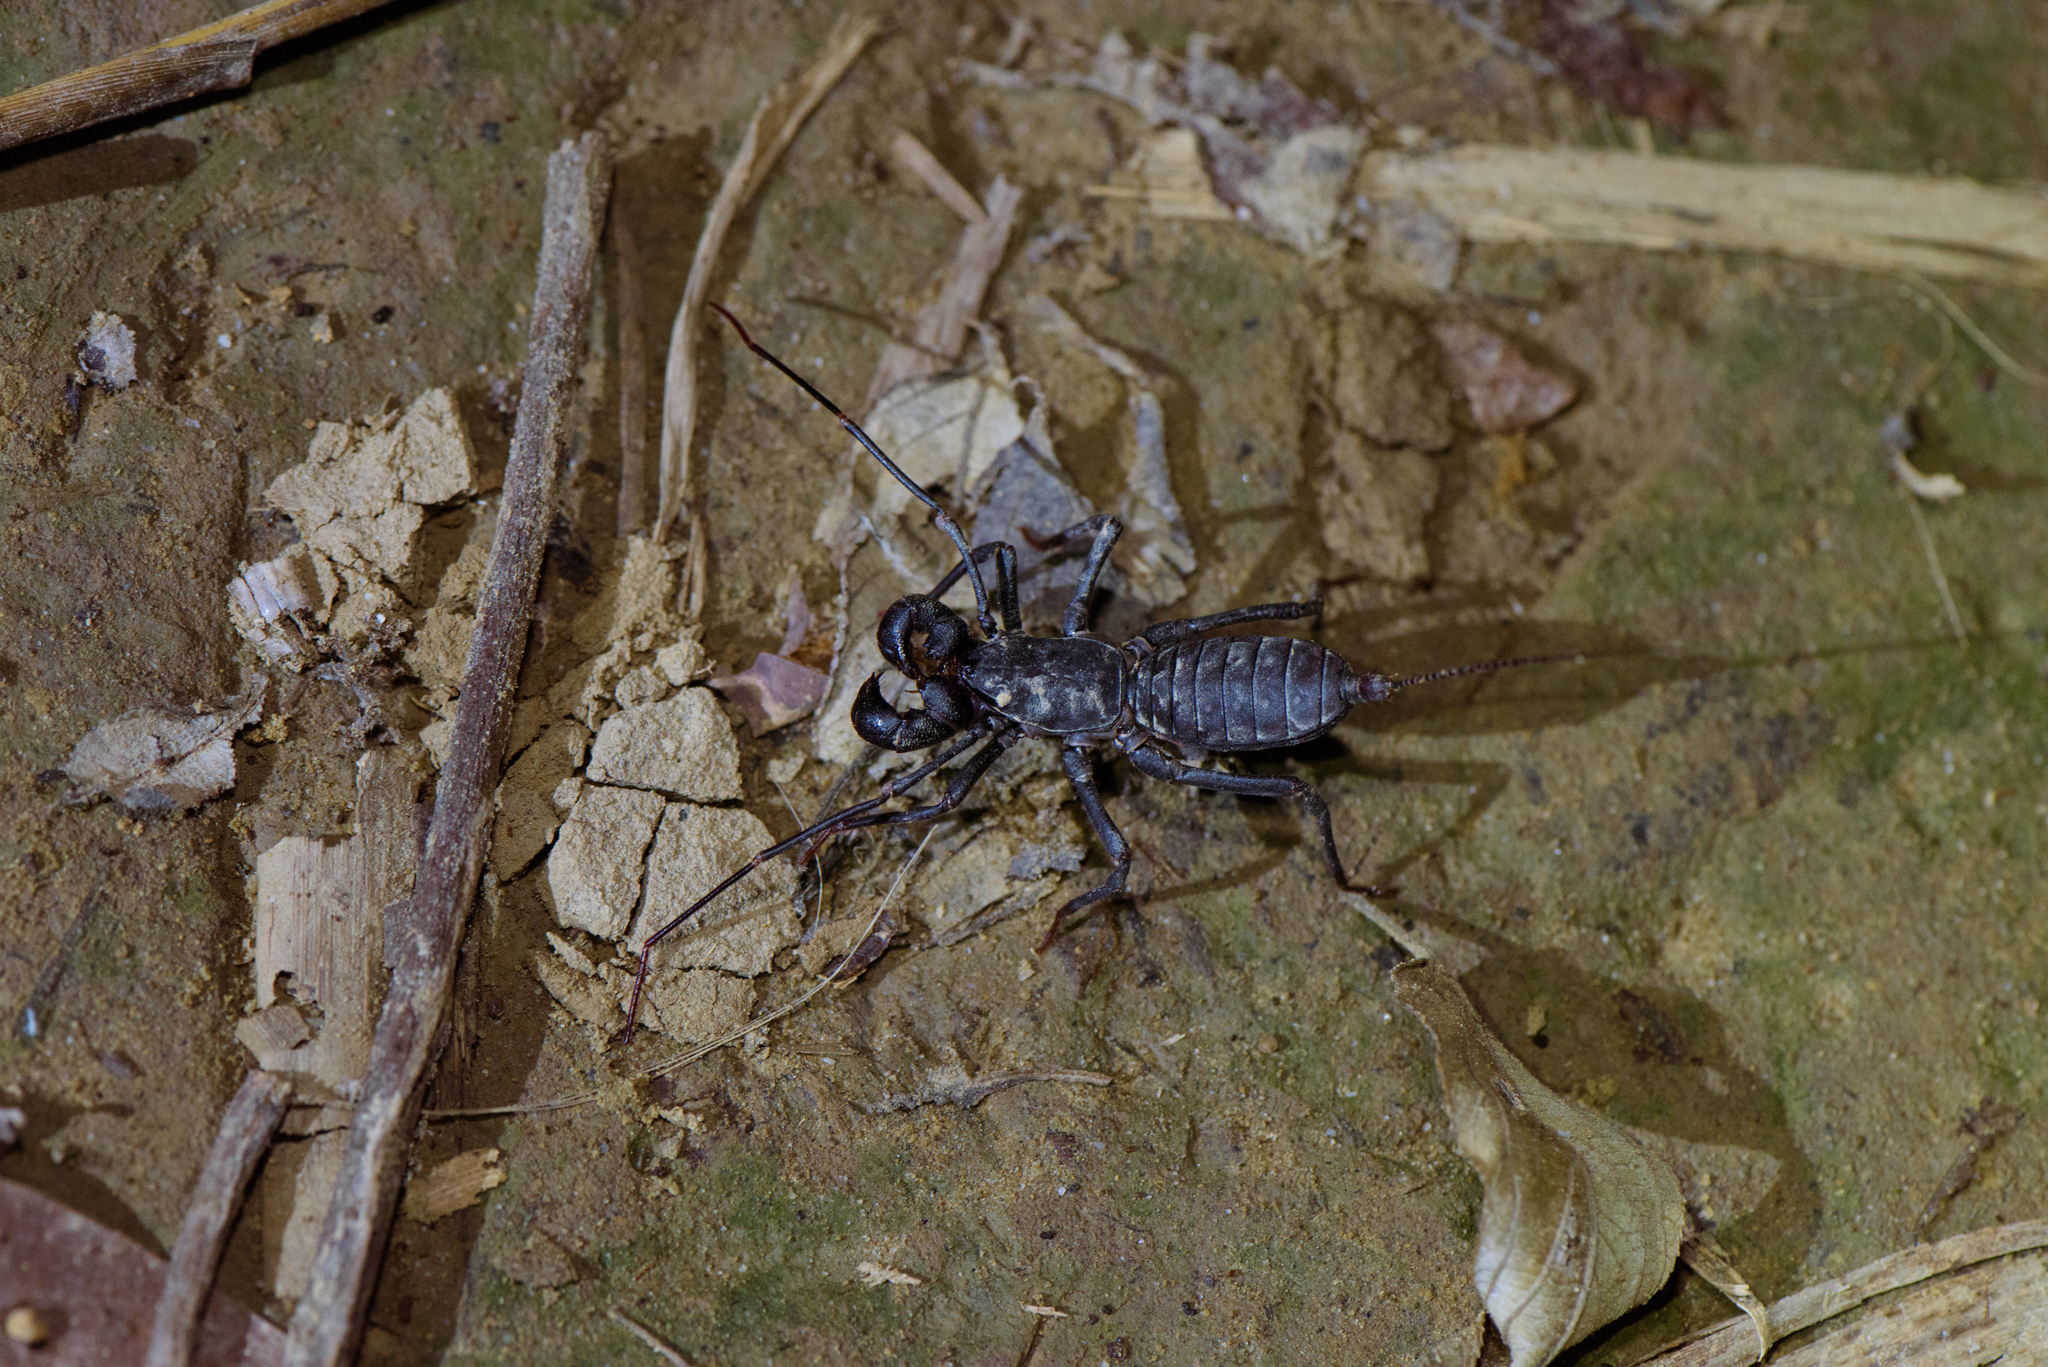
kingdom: Animalia
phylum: Arthropoda
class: Arachnida
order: Uropygi
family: Thelyphonidae
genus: Typopeltis
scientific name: Typopeltis crucifer
